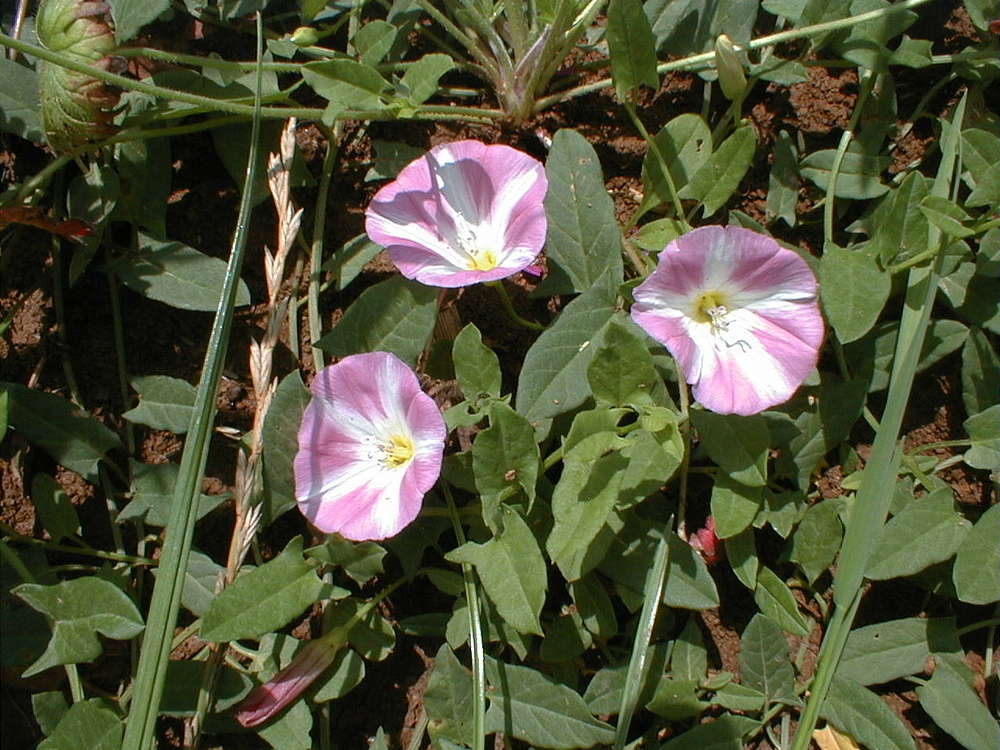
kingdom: Plantae
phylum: Tracheophyta
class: Magnoliopsida
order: Solanales
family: Convolvulaceae
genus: Convolvulus
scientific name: Convolvulus arvensis
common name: Field bindweed
